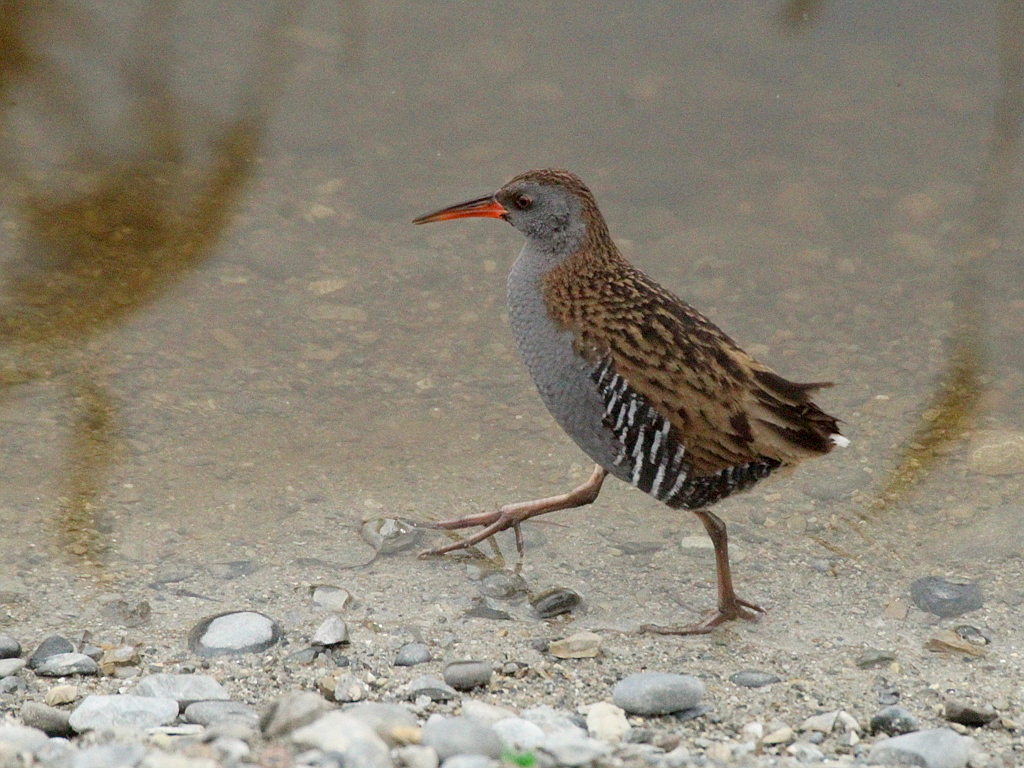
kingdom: Animalia
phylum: Chordata
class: Aves
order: Gruiformes
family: Rallidae
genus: Rallus
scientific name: Rallus aquaticus
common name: Water rail
